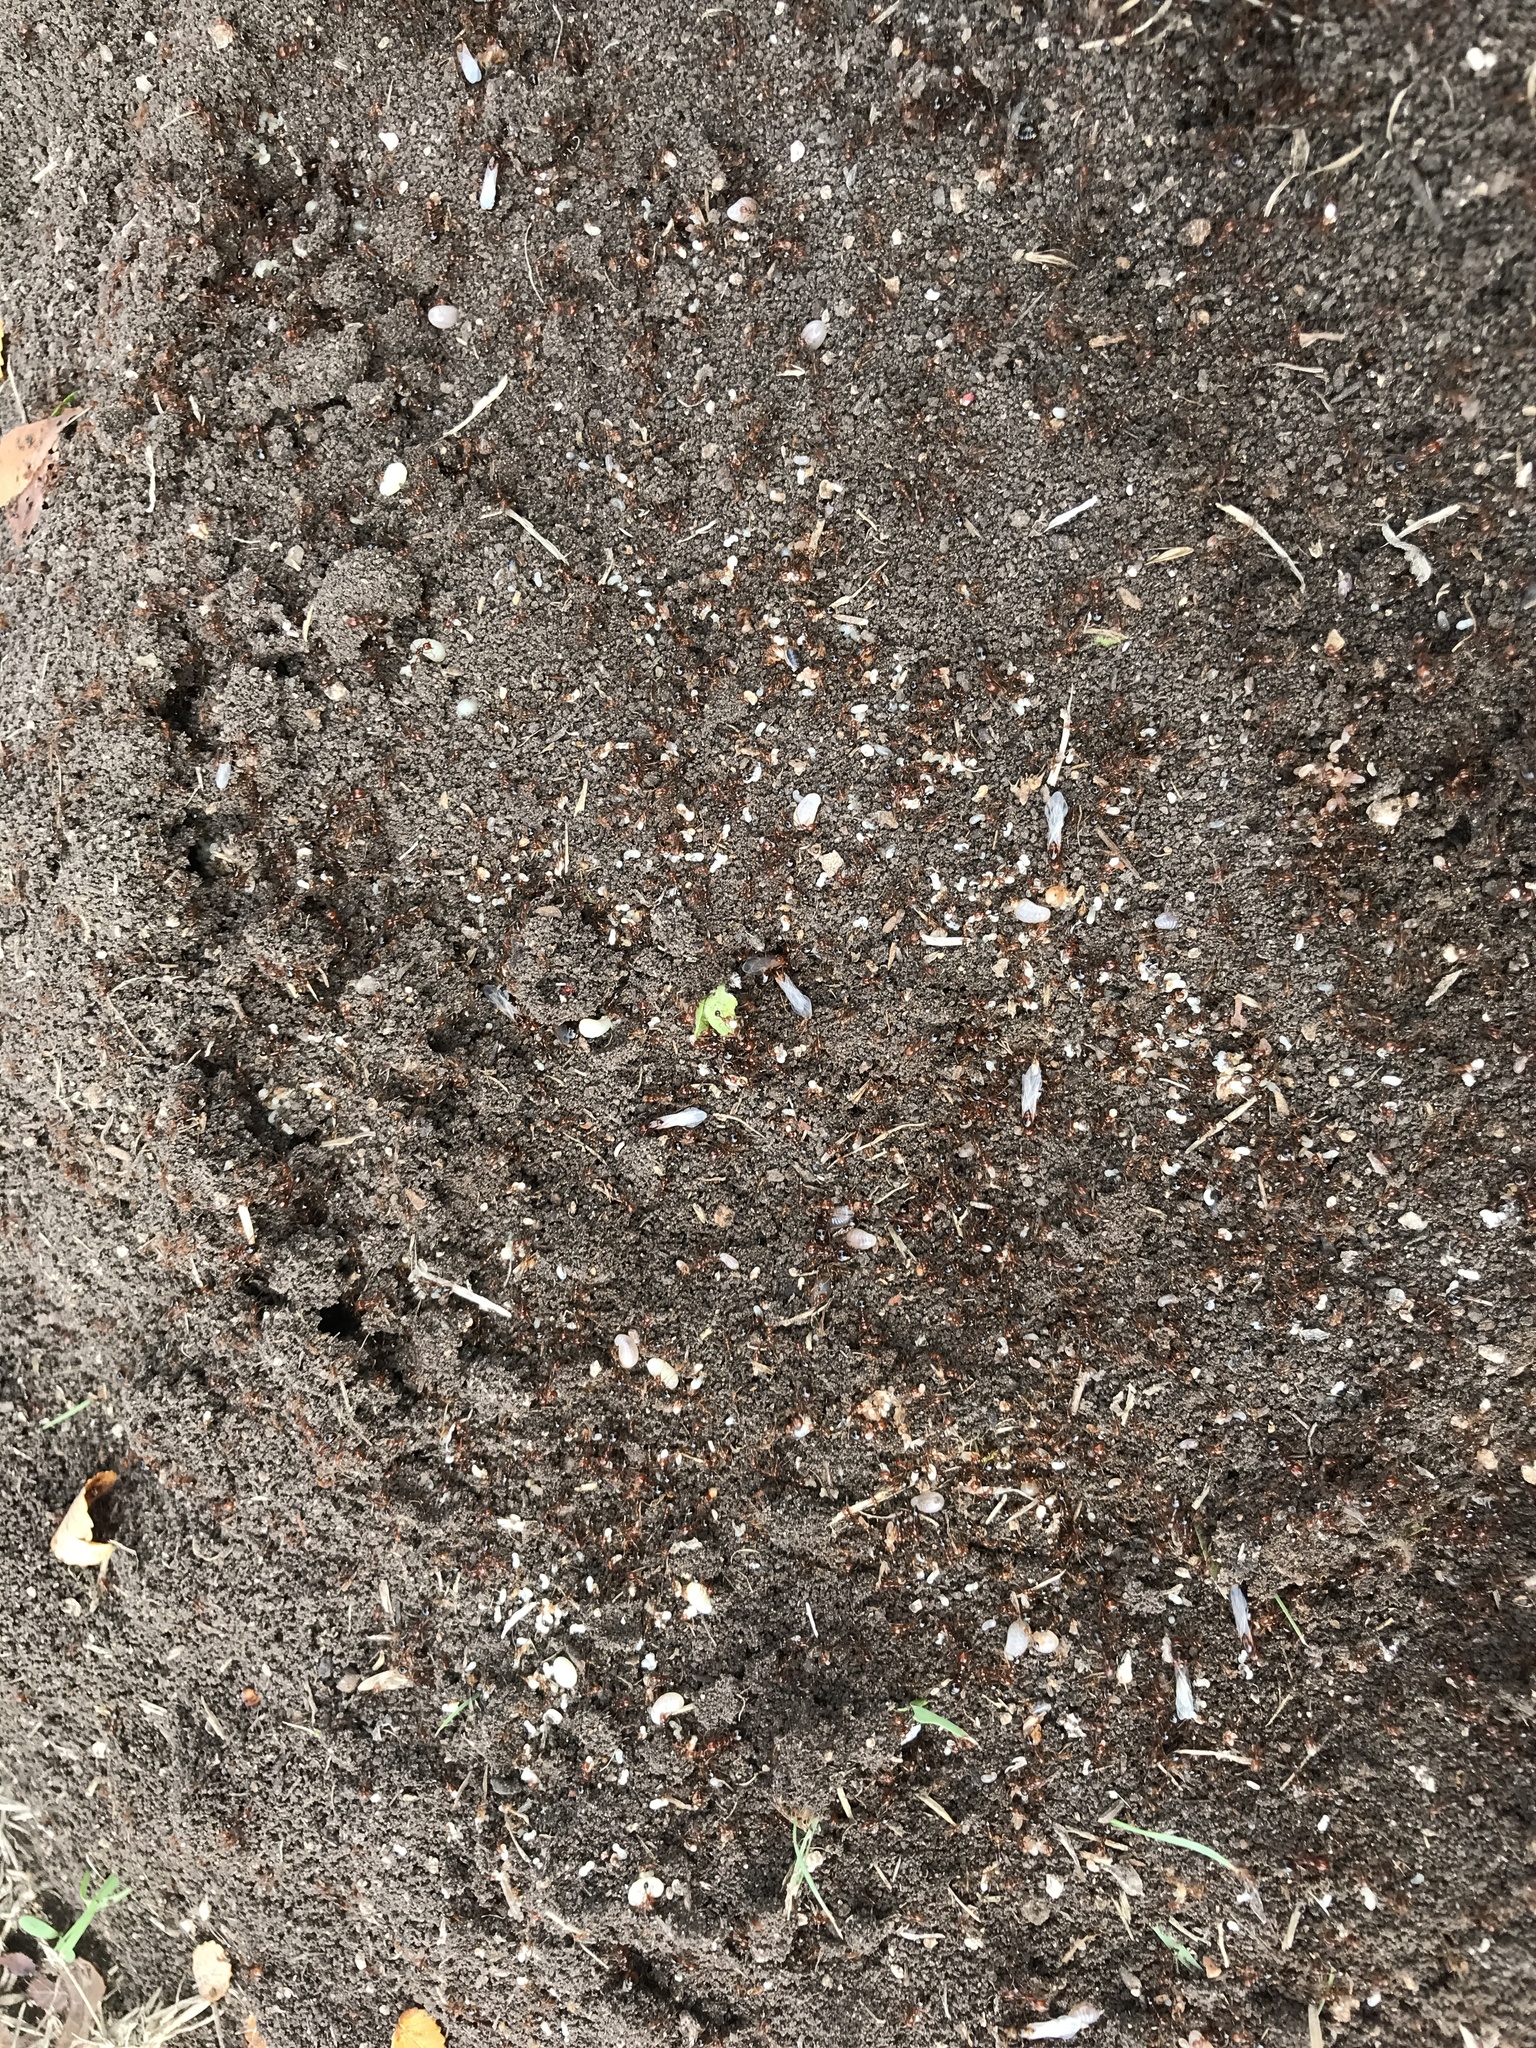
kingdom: Animalia
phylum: Arthropoda
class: Insecta
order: Hymenoptera
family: Formicidae
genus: Solenopsis
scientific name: Solenopsis invicta
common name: Red imported fire ant
